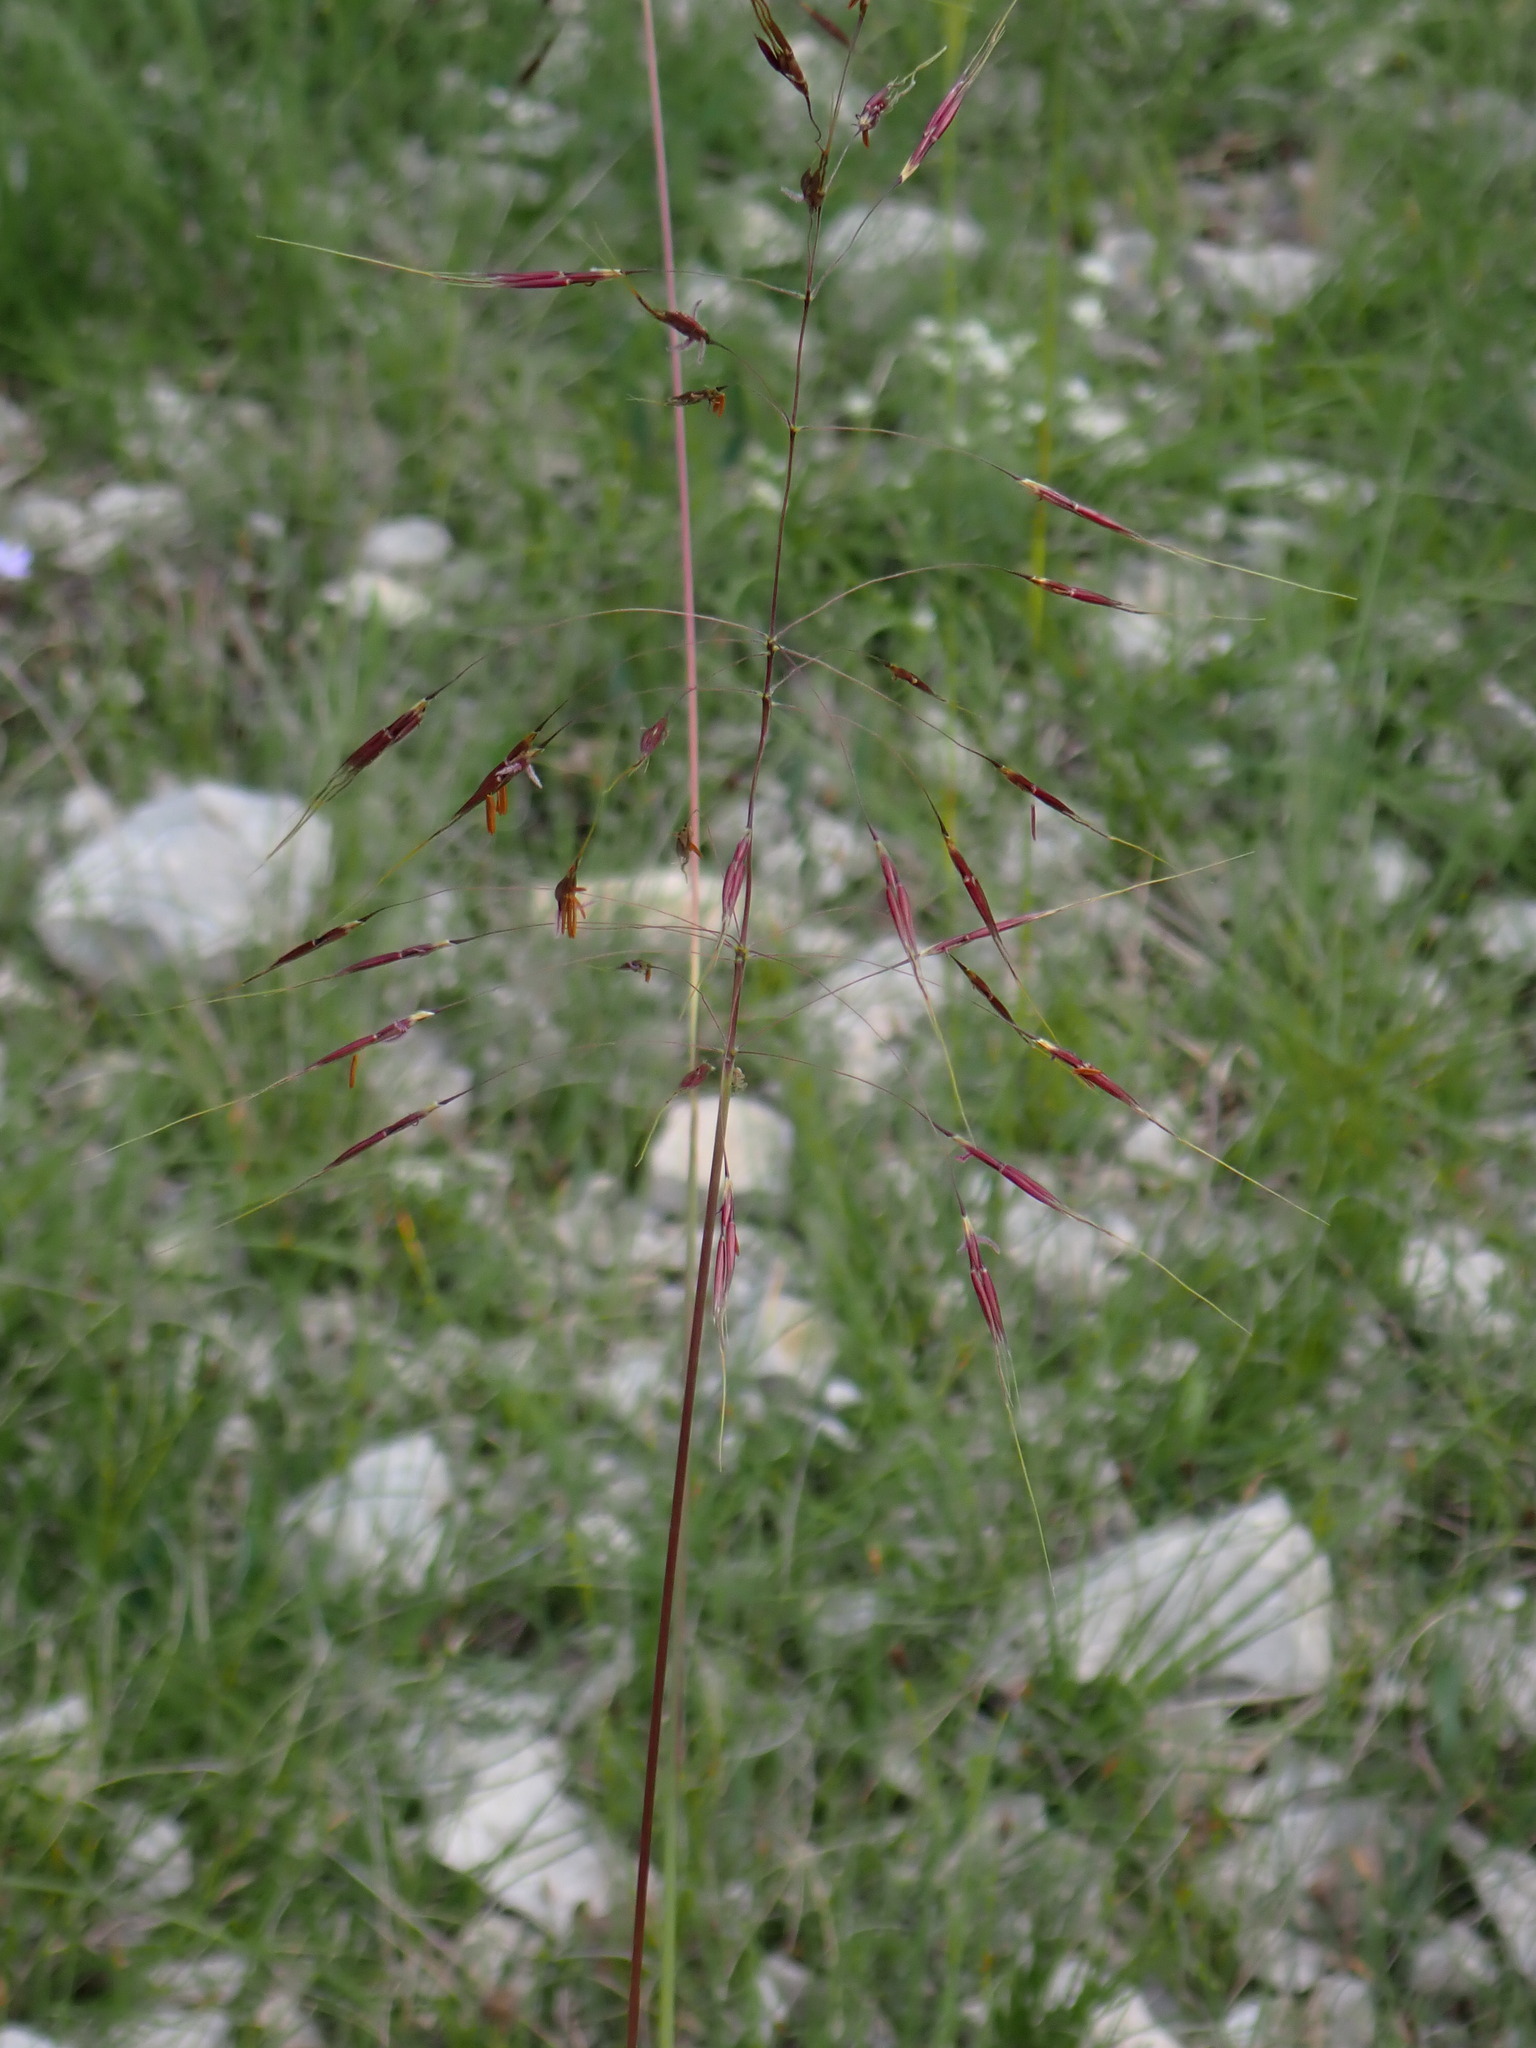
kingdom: Plantae
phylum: Tracheophyta
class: Liliopsida
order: Poales
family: Poaceae
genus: Chrysopogon
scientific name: Chrysopogon gryllus
